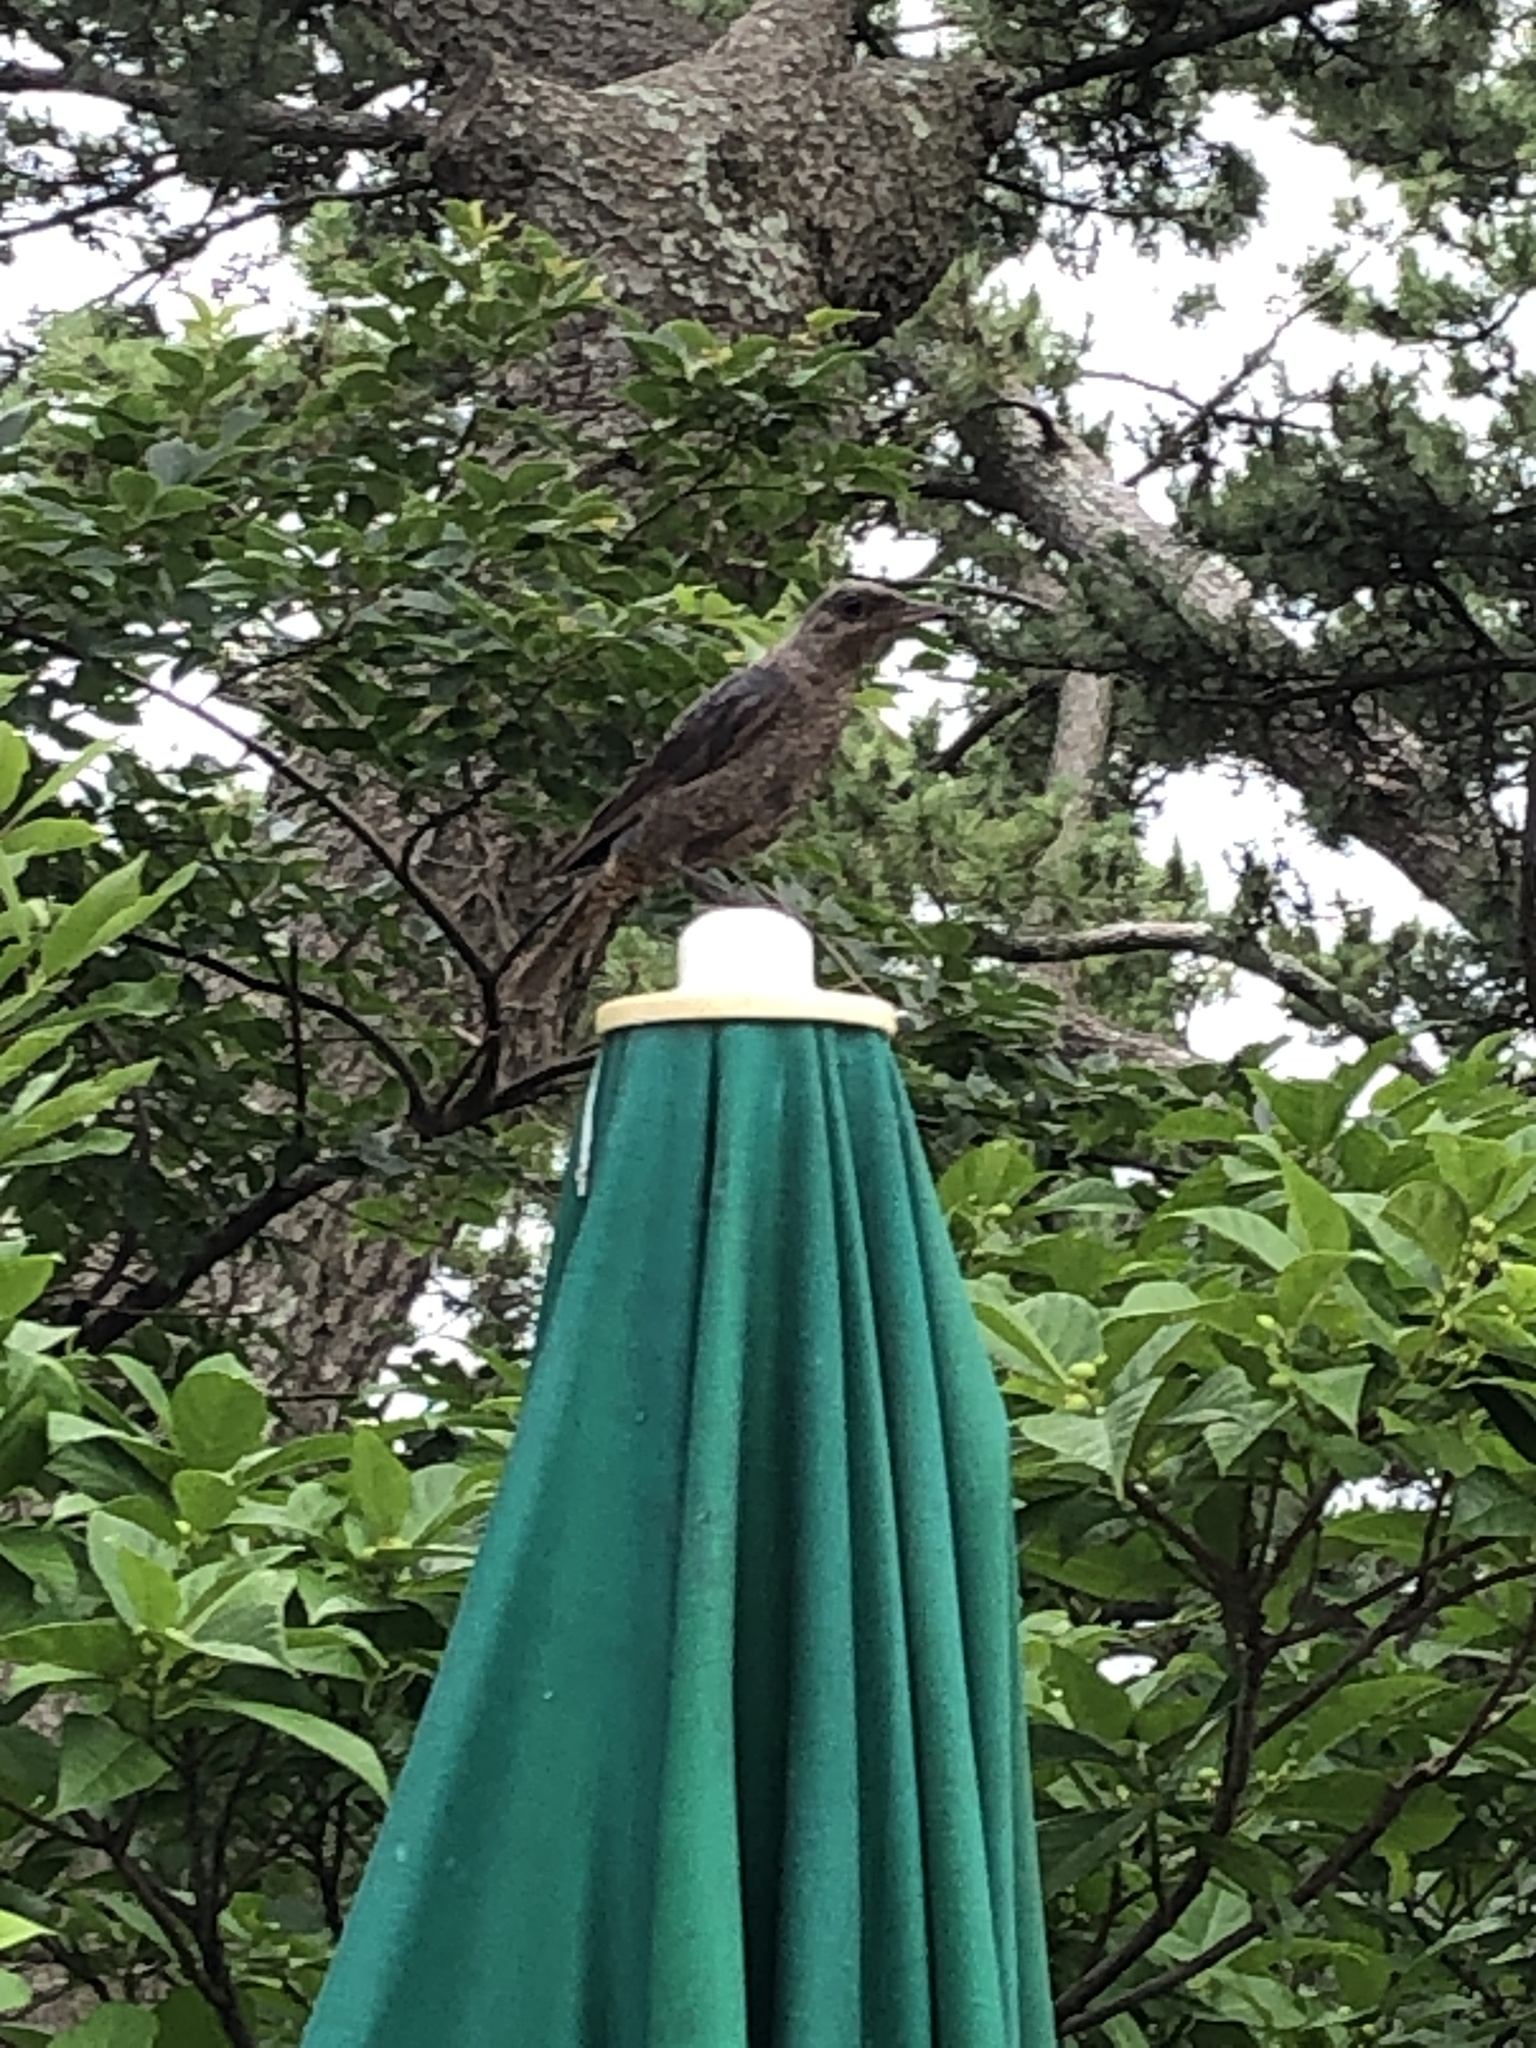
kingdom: Animalia
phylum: Chordata
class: Aves
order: Passeriformes
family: Muscicapidae
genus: Monticola
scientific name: Monticola solitarius
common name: Blue rock thrush
